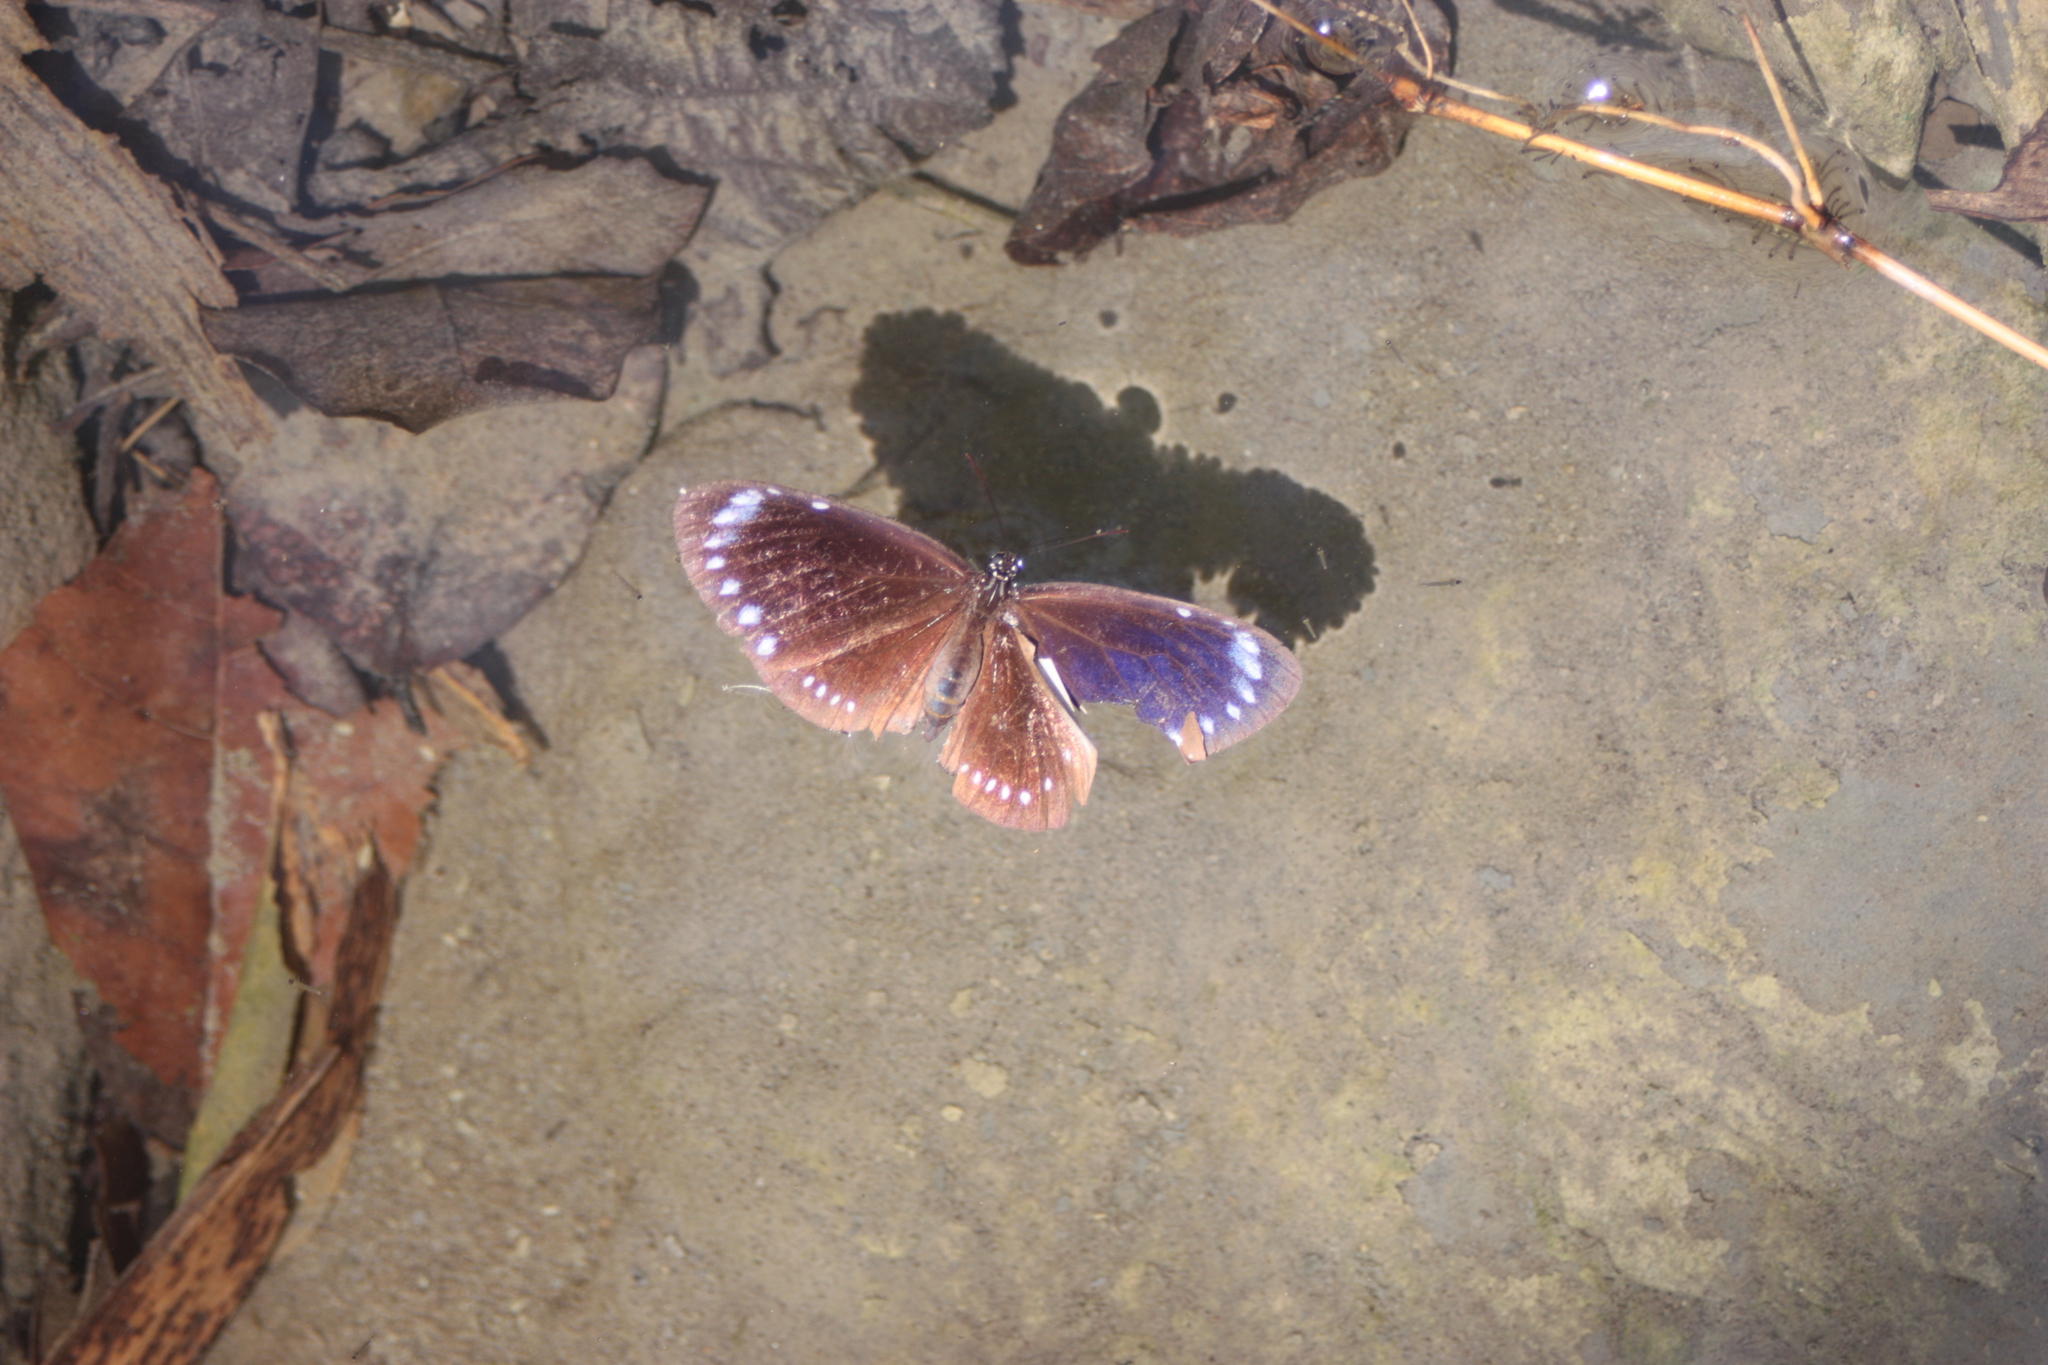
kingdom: Animalia
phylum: Arthropoda
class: Insecta
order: Lepidoptera
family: Nymphalidae
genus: Euploea
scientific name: Euploea tulliolus
